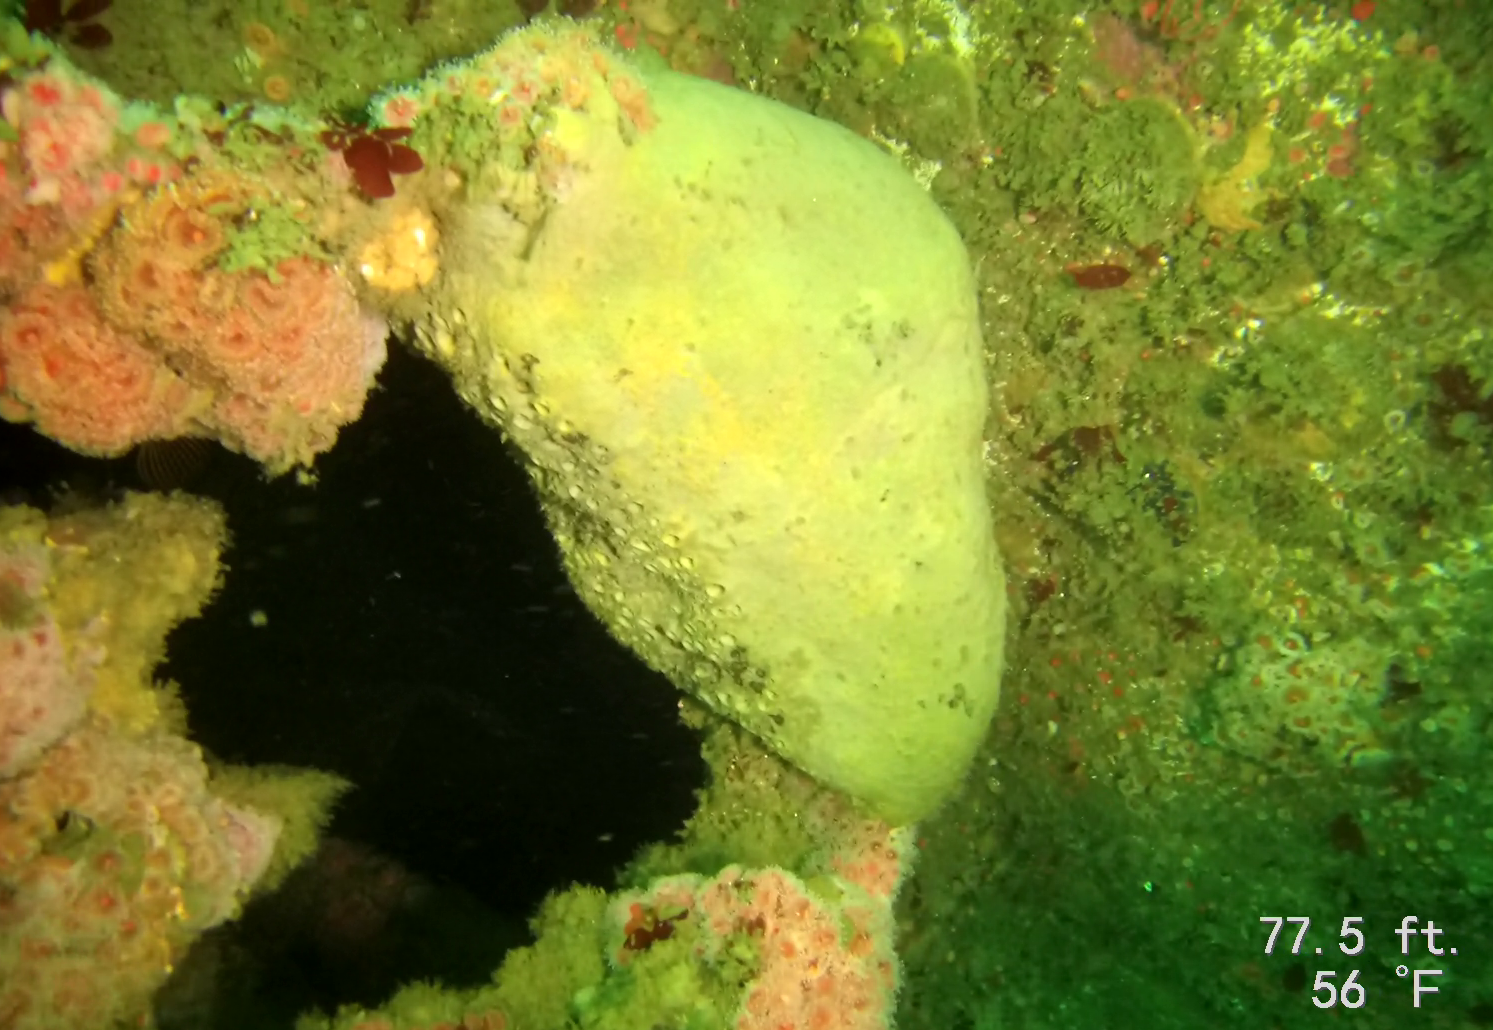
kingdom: Animalia
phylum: Porifera
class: Demospongiae
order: Clionaida
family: Clionaidae
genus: Spheciospongia
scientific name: Spheciospongia confoederata
